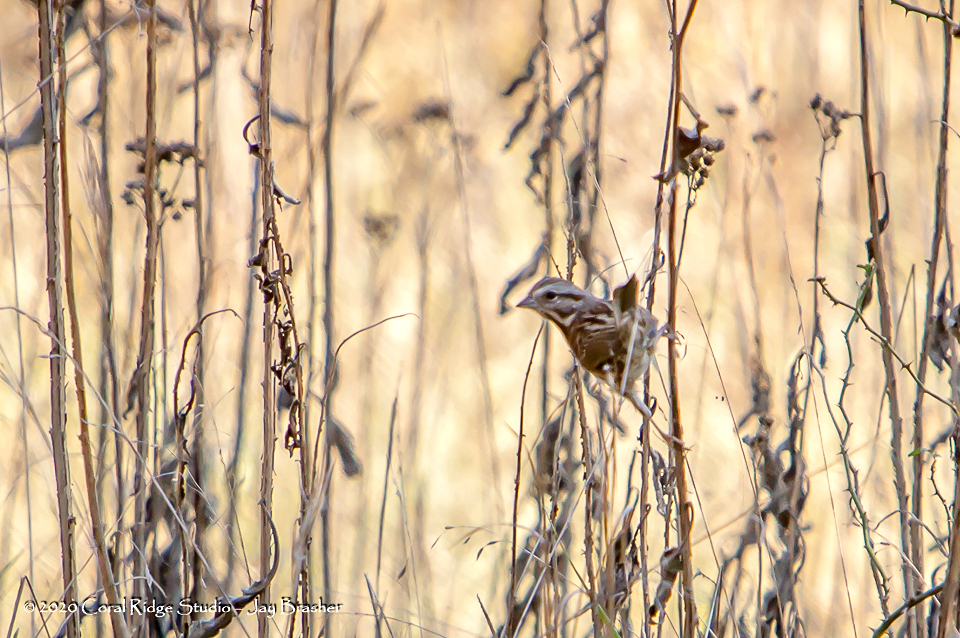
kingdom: Animalia
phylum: Chordata
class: Aves
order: Passeriformes
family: Passerellidae
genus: Melospiza
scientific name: Melospiza melodia
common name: Song sparrow
